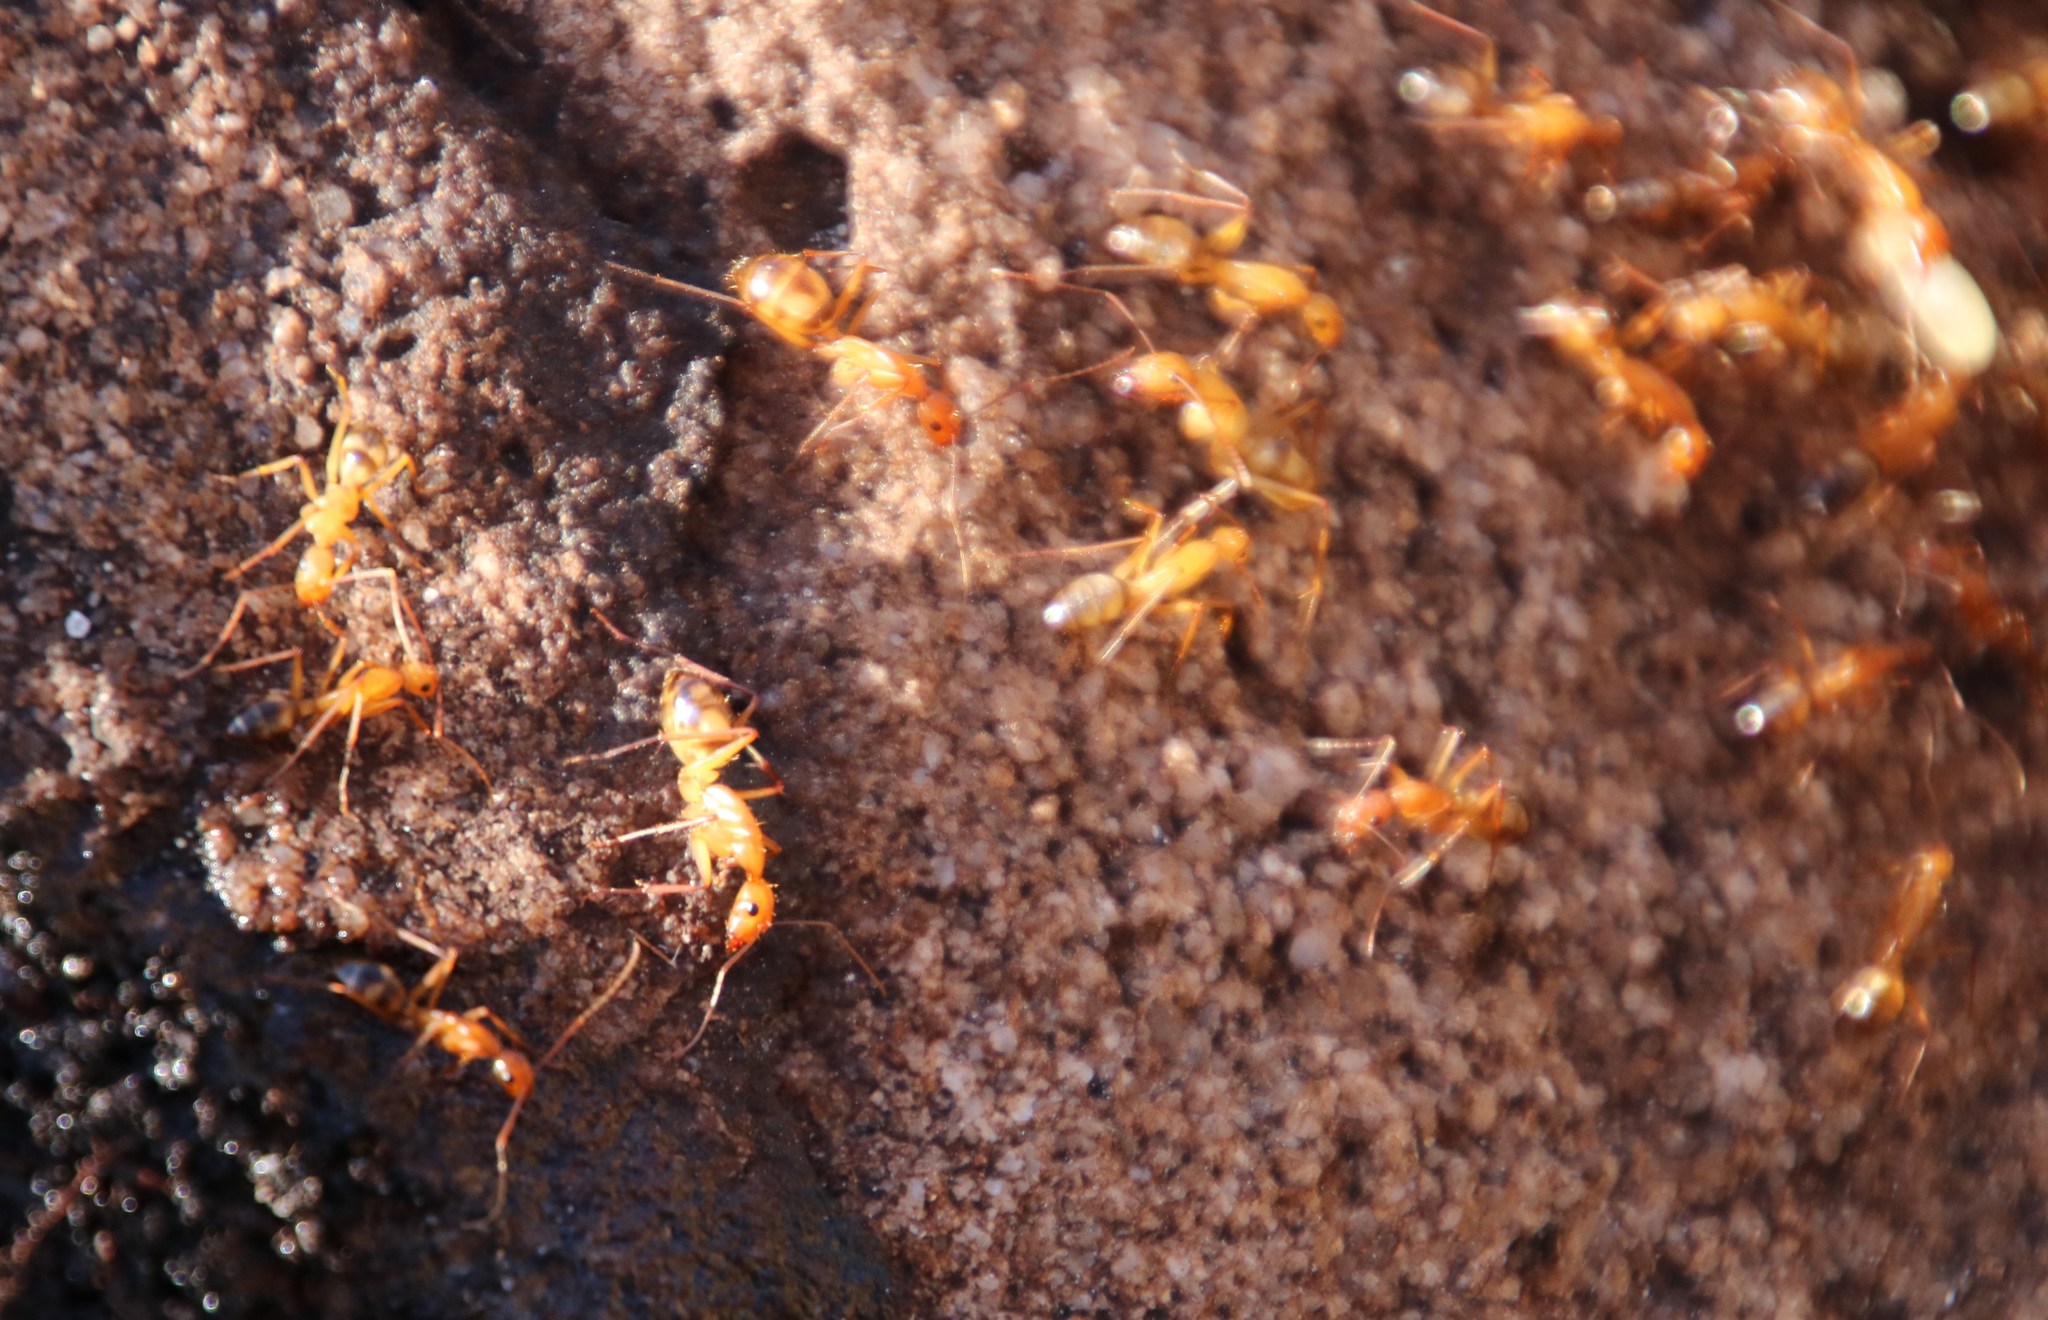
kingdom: Animalia
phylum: Arthropoda
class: Insecta
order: Hymenoptera
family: Formicidae
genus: Camponotus
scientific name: Camponotus maculatus
